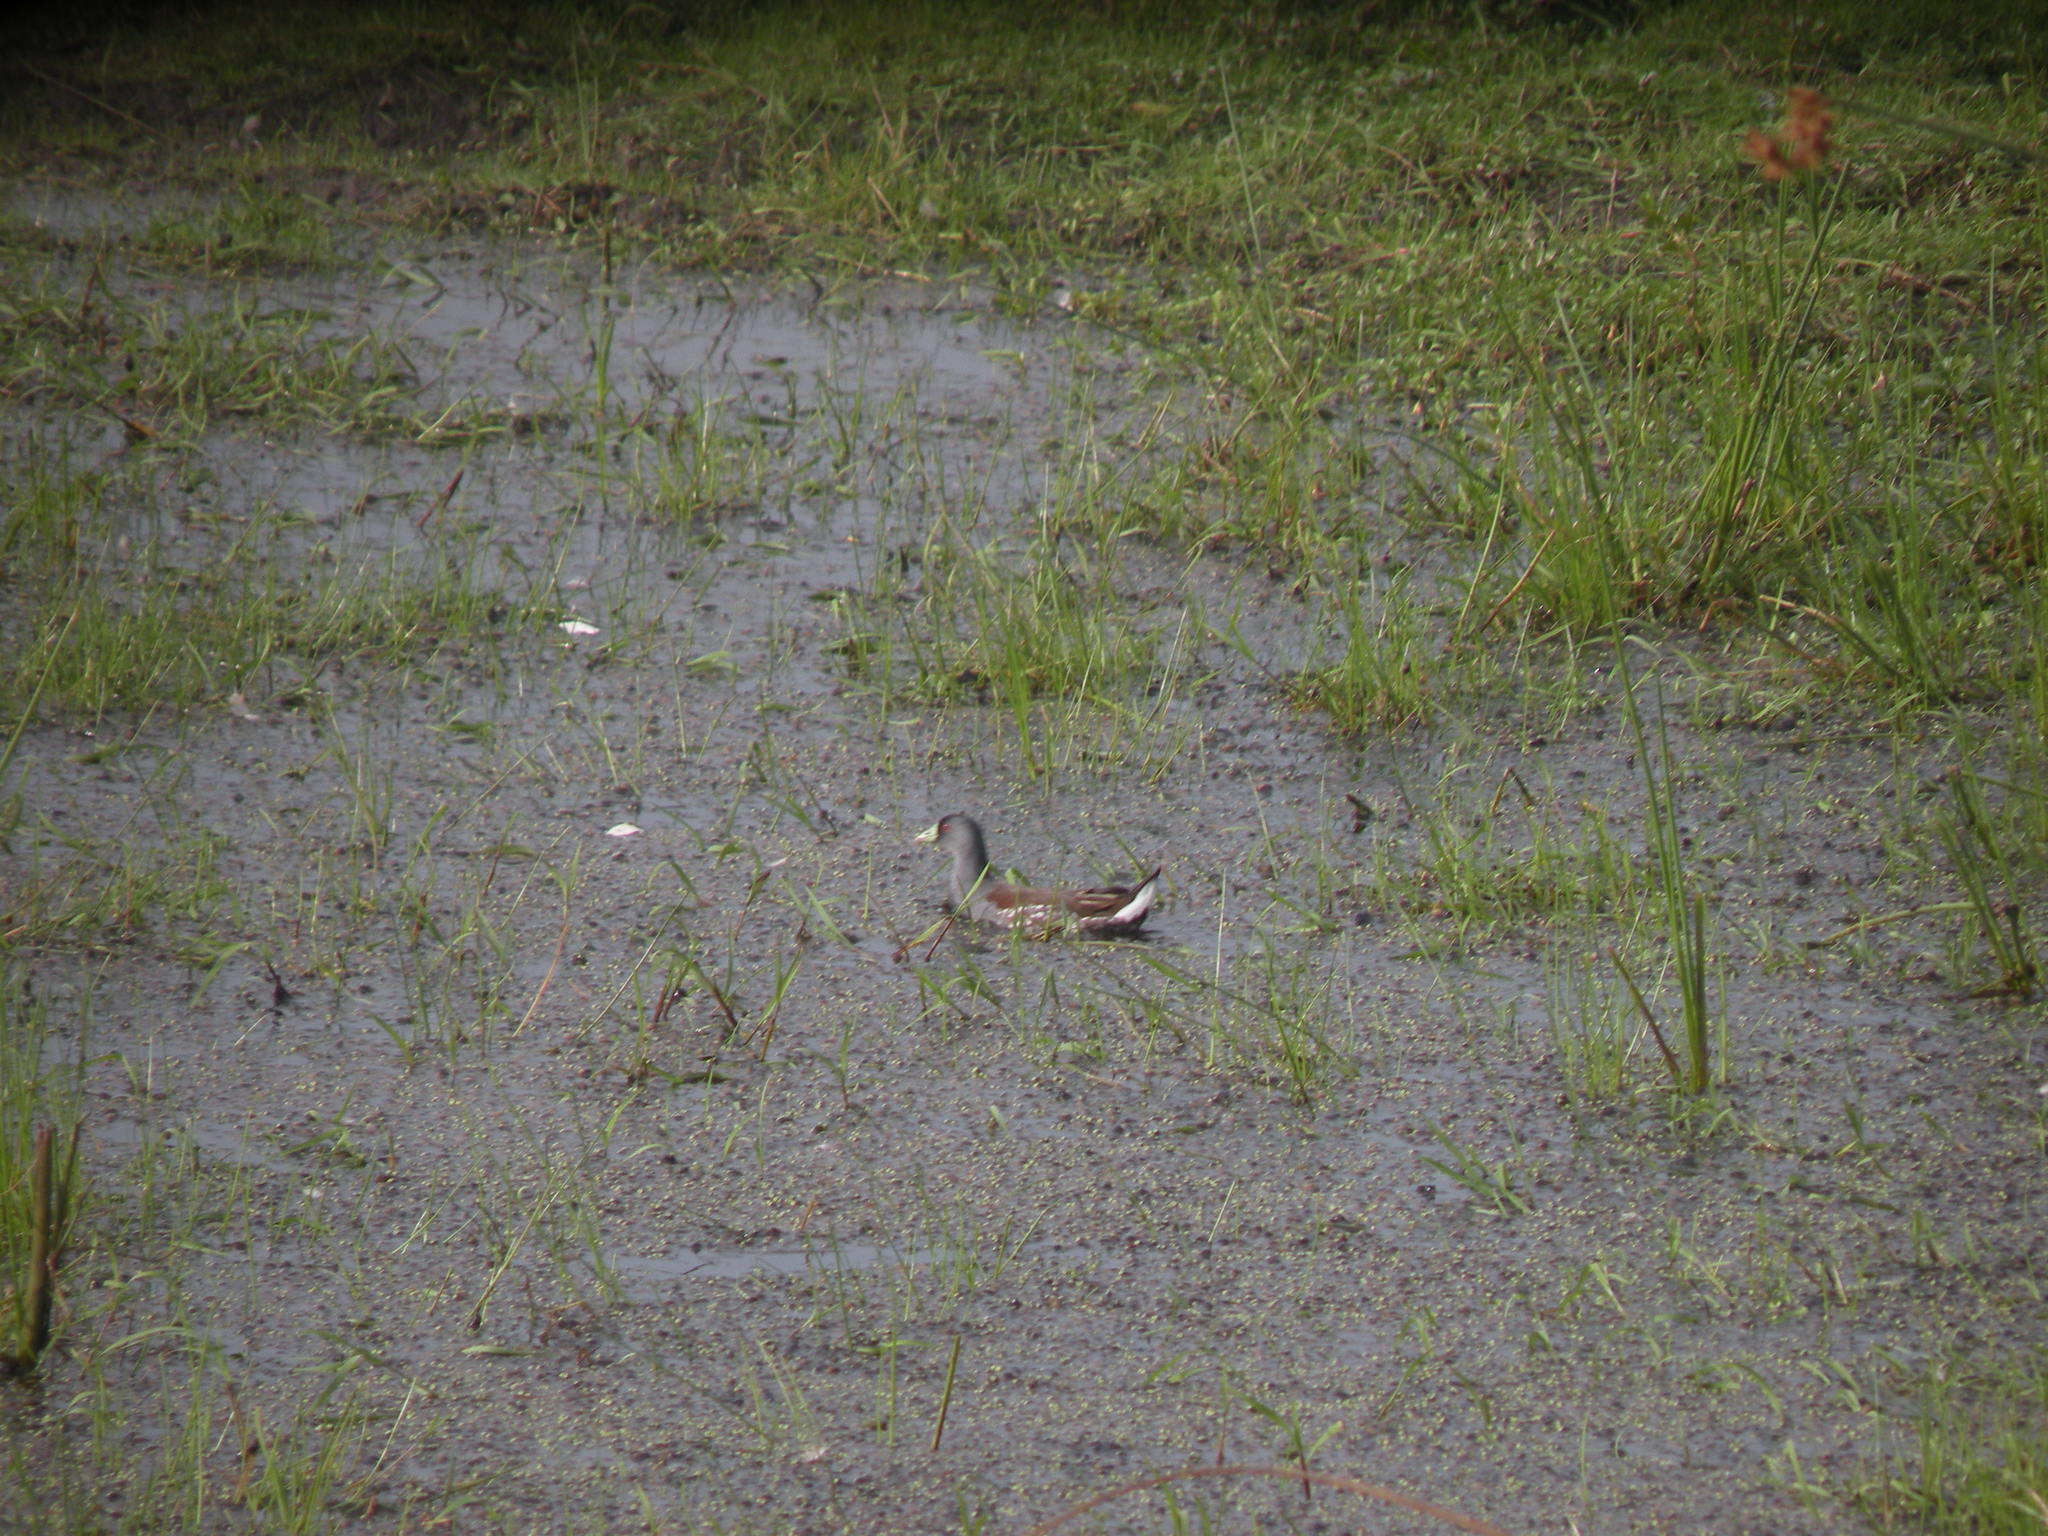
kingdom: Animalia
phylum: Chordata
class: Aves
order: Gruiformes
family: Rallidae
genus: Gallinula
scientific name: Gallinula melanops
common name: Spot-flanked gallinule
